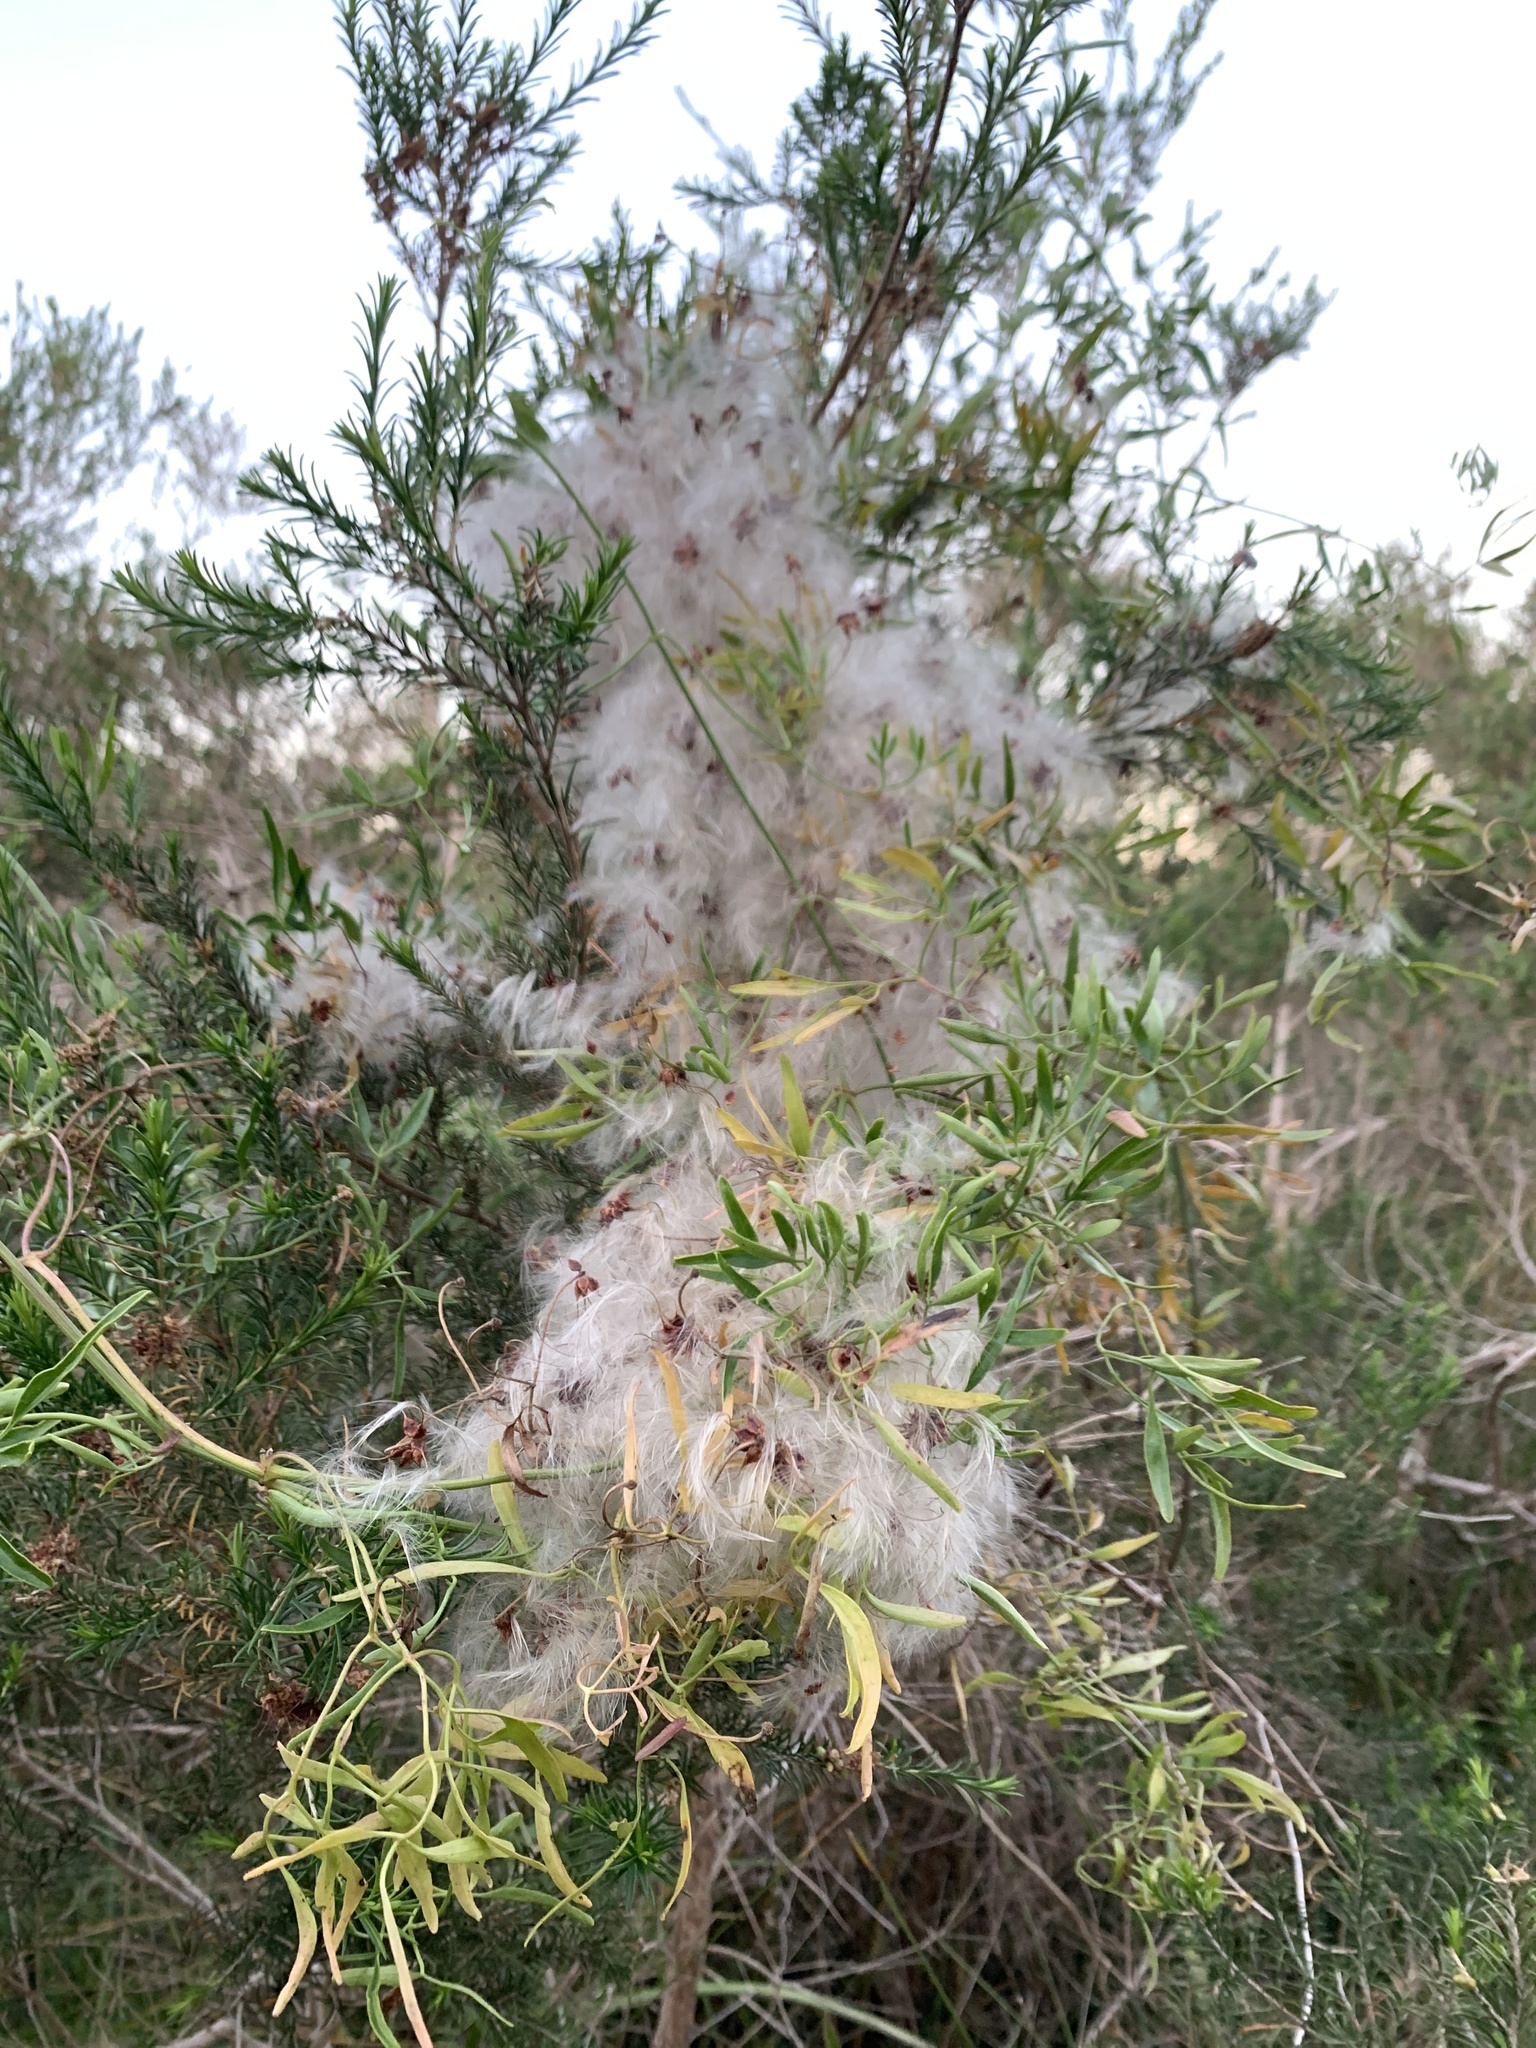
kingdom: Plantae
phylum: Tracheophyta
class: Magnoliopsida
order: Ranunculales
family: Ranunculaceae
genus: Clematis
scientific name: Clematis microphylla
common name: Headachevine
